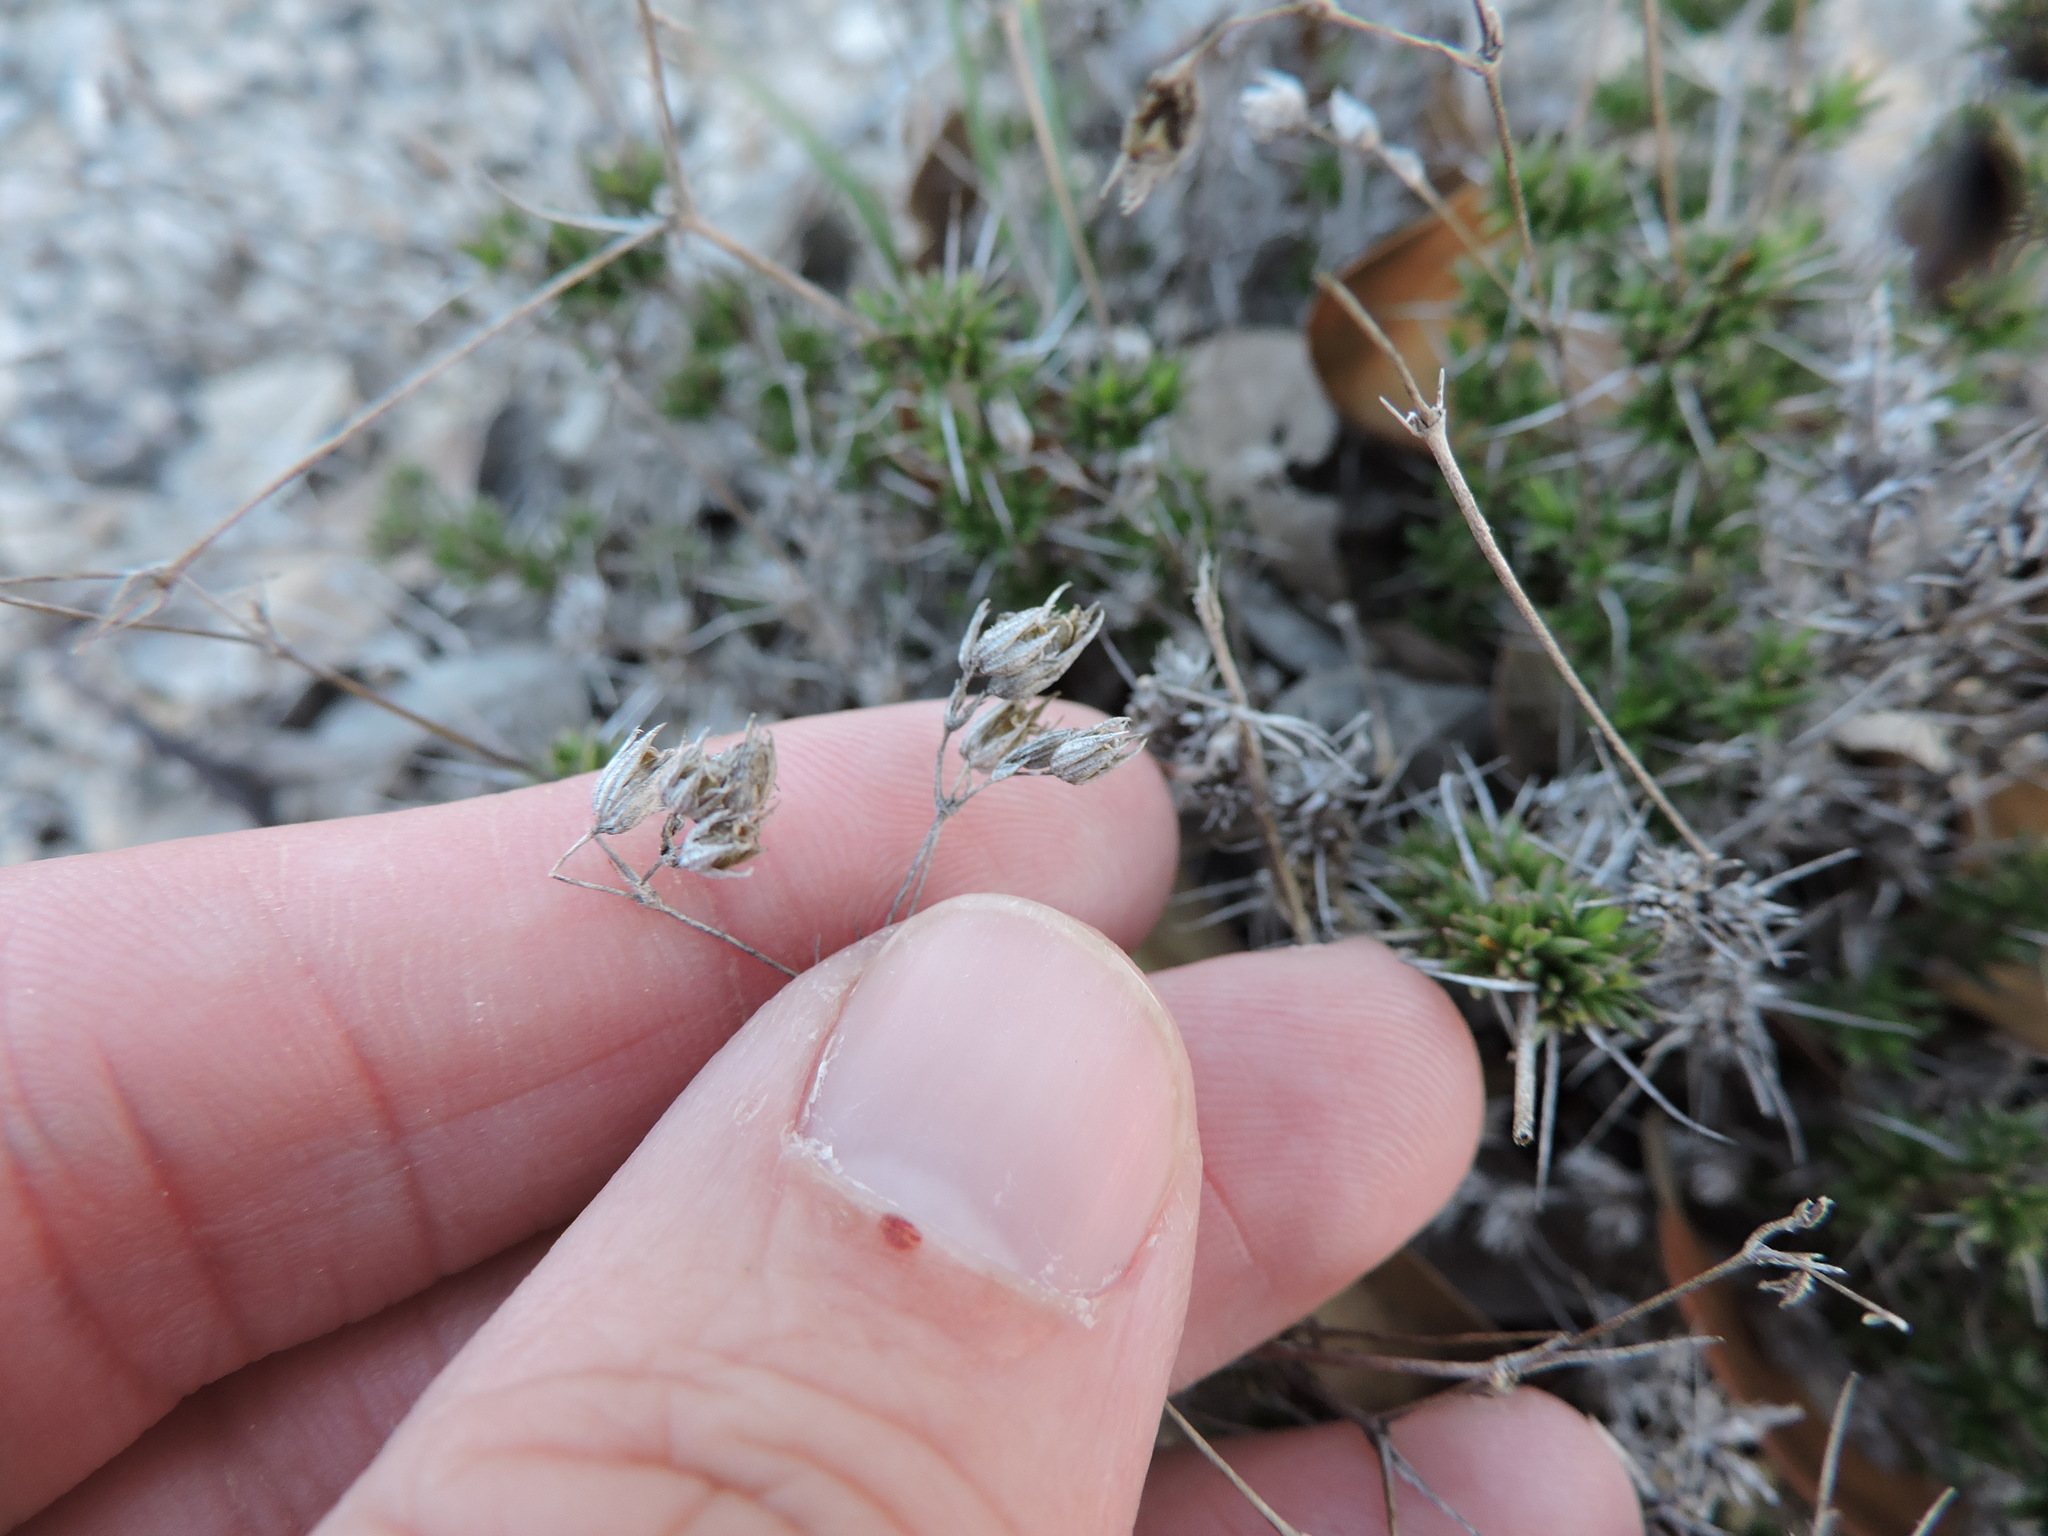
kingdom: Plantae
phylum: Tracheophyta
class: Magnoliopsida
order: Caryophyllales
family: Caryophyllaceae
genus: Sabulina
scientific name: Sabulina michauxii
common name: Michaux's stitchwort
